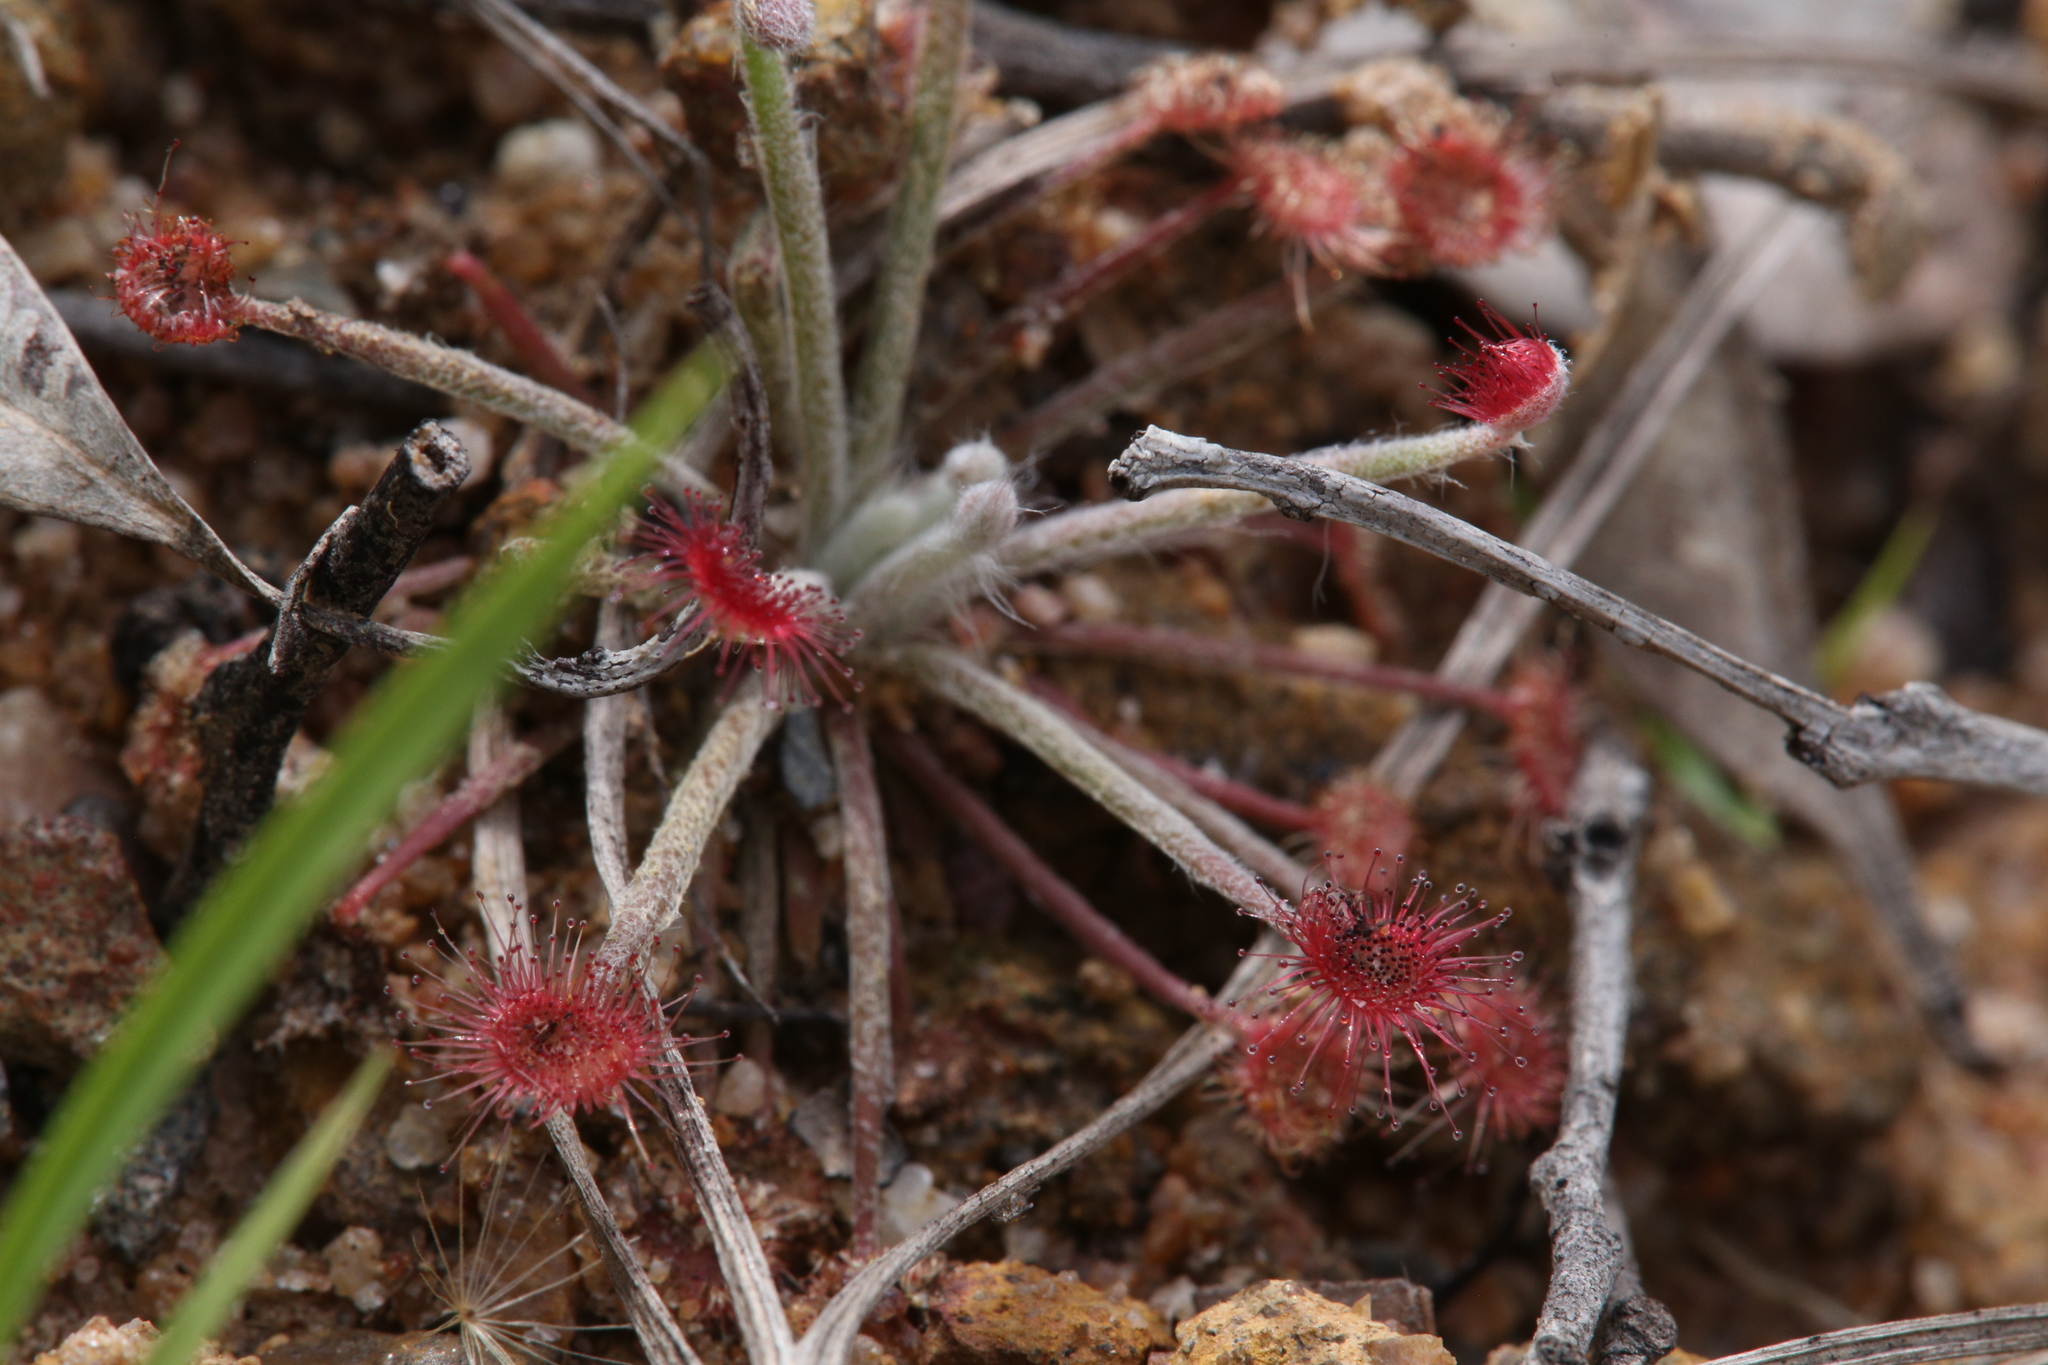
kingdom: Plantae
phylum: Tracheophyta
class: Magnoliopsida
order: Caryophyllales
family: Droseraceae
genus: Drosera
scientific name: Drosera ordensis
